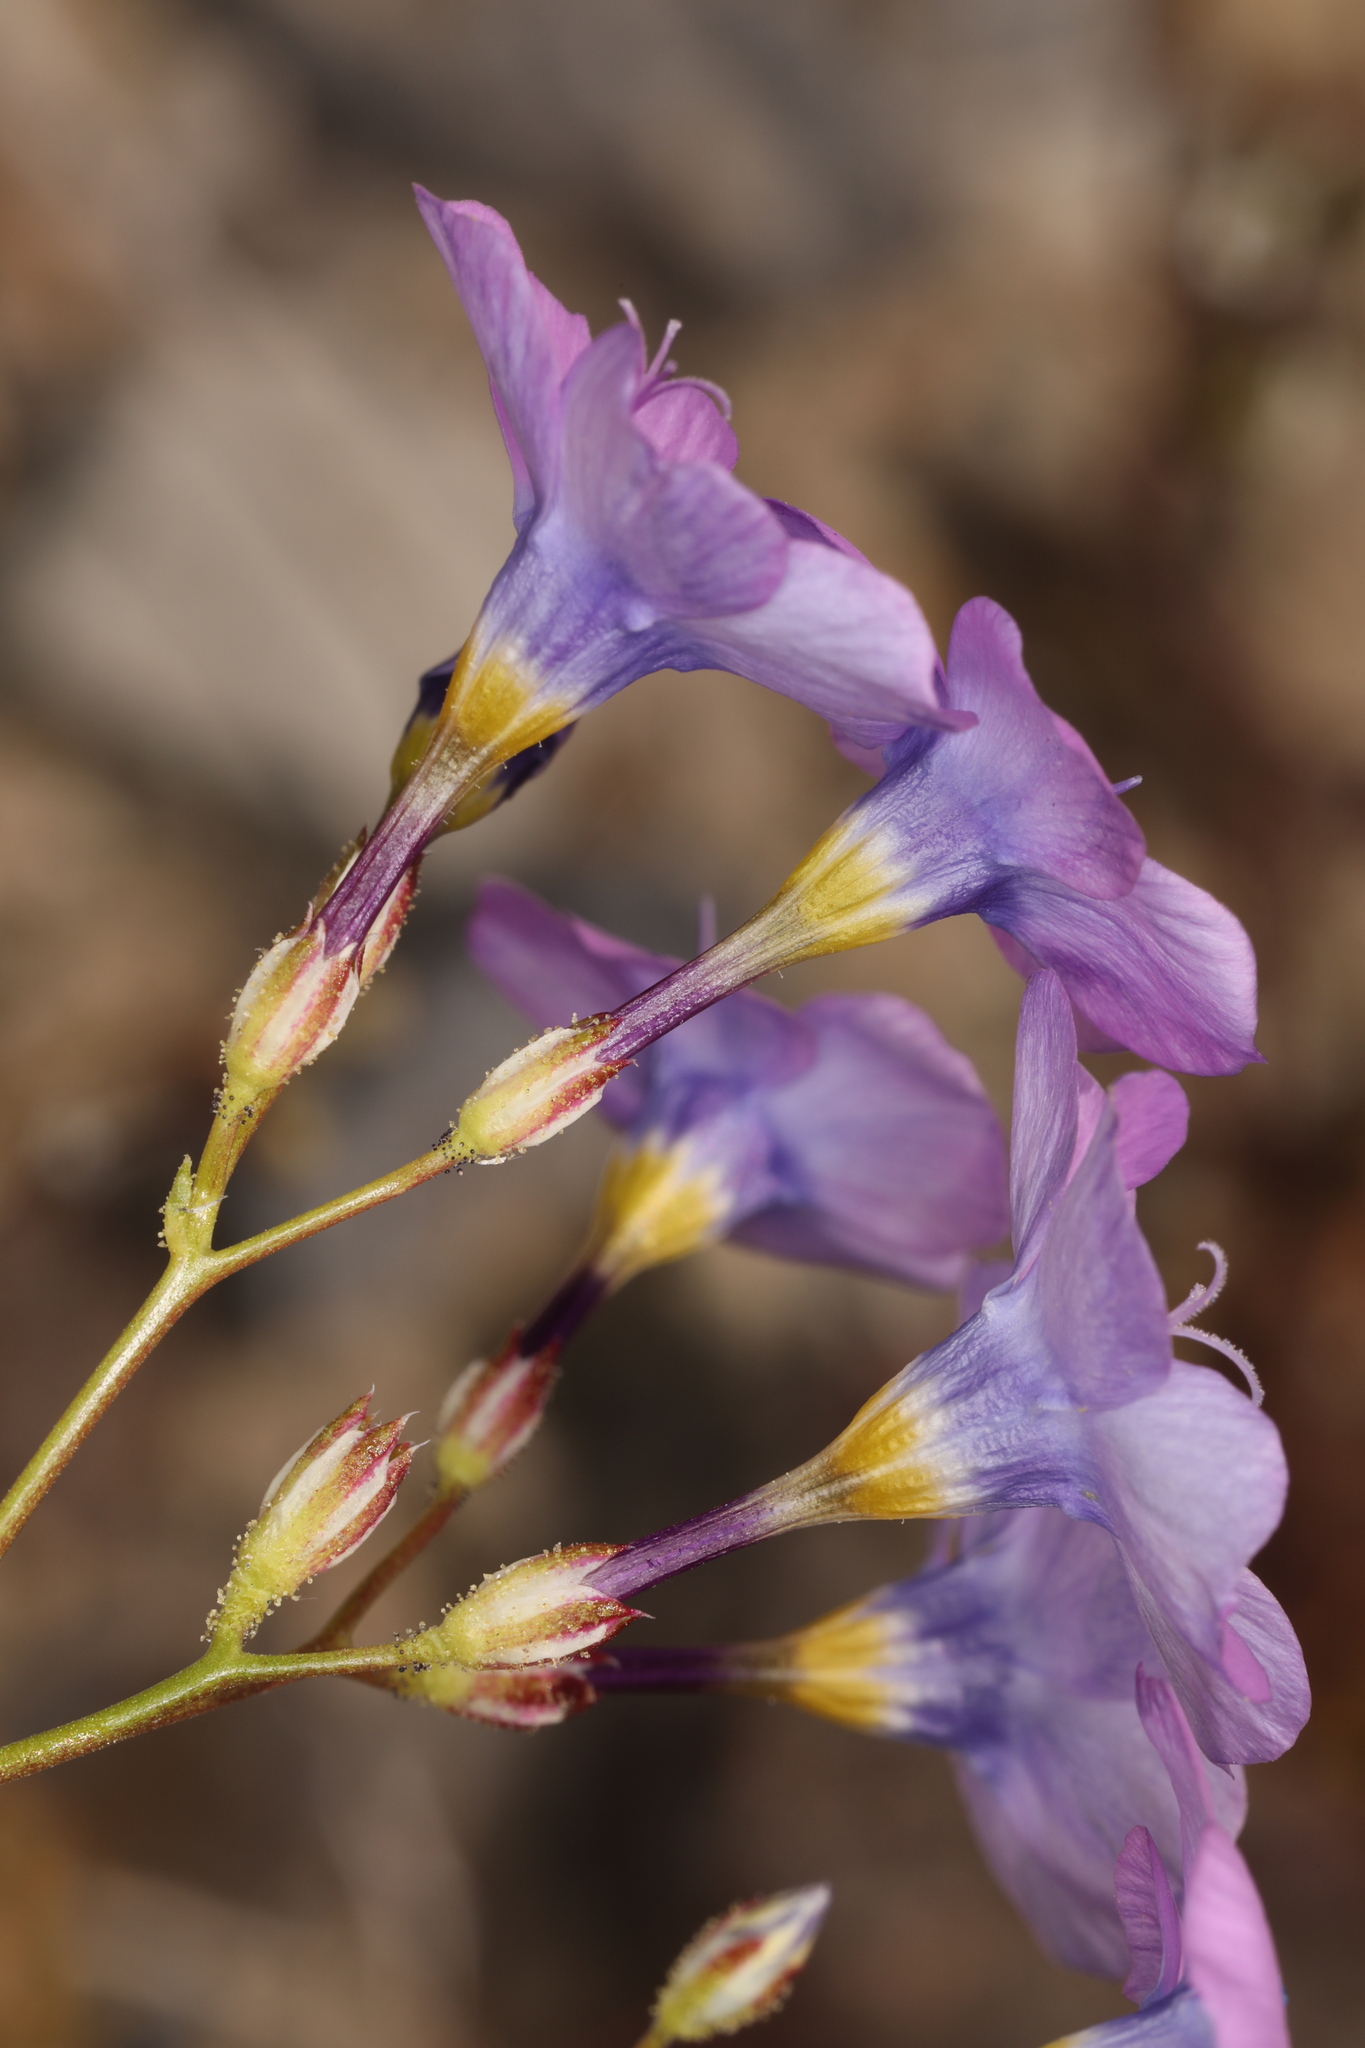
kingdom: Plantae
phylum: Tracheophyta
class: Magnoliopsida
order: Ericales
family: Polemoniaceae
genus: Gilia
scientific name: Gilia cana
